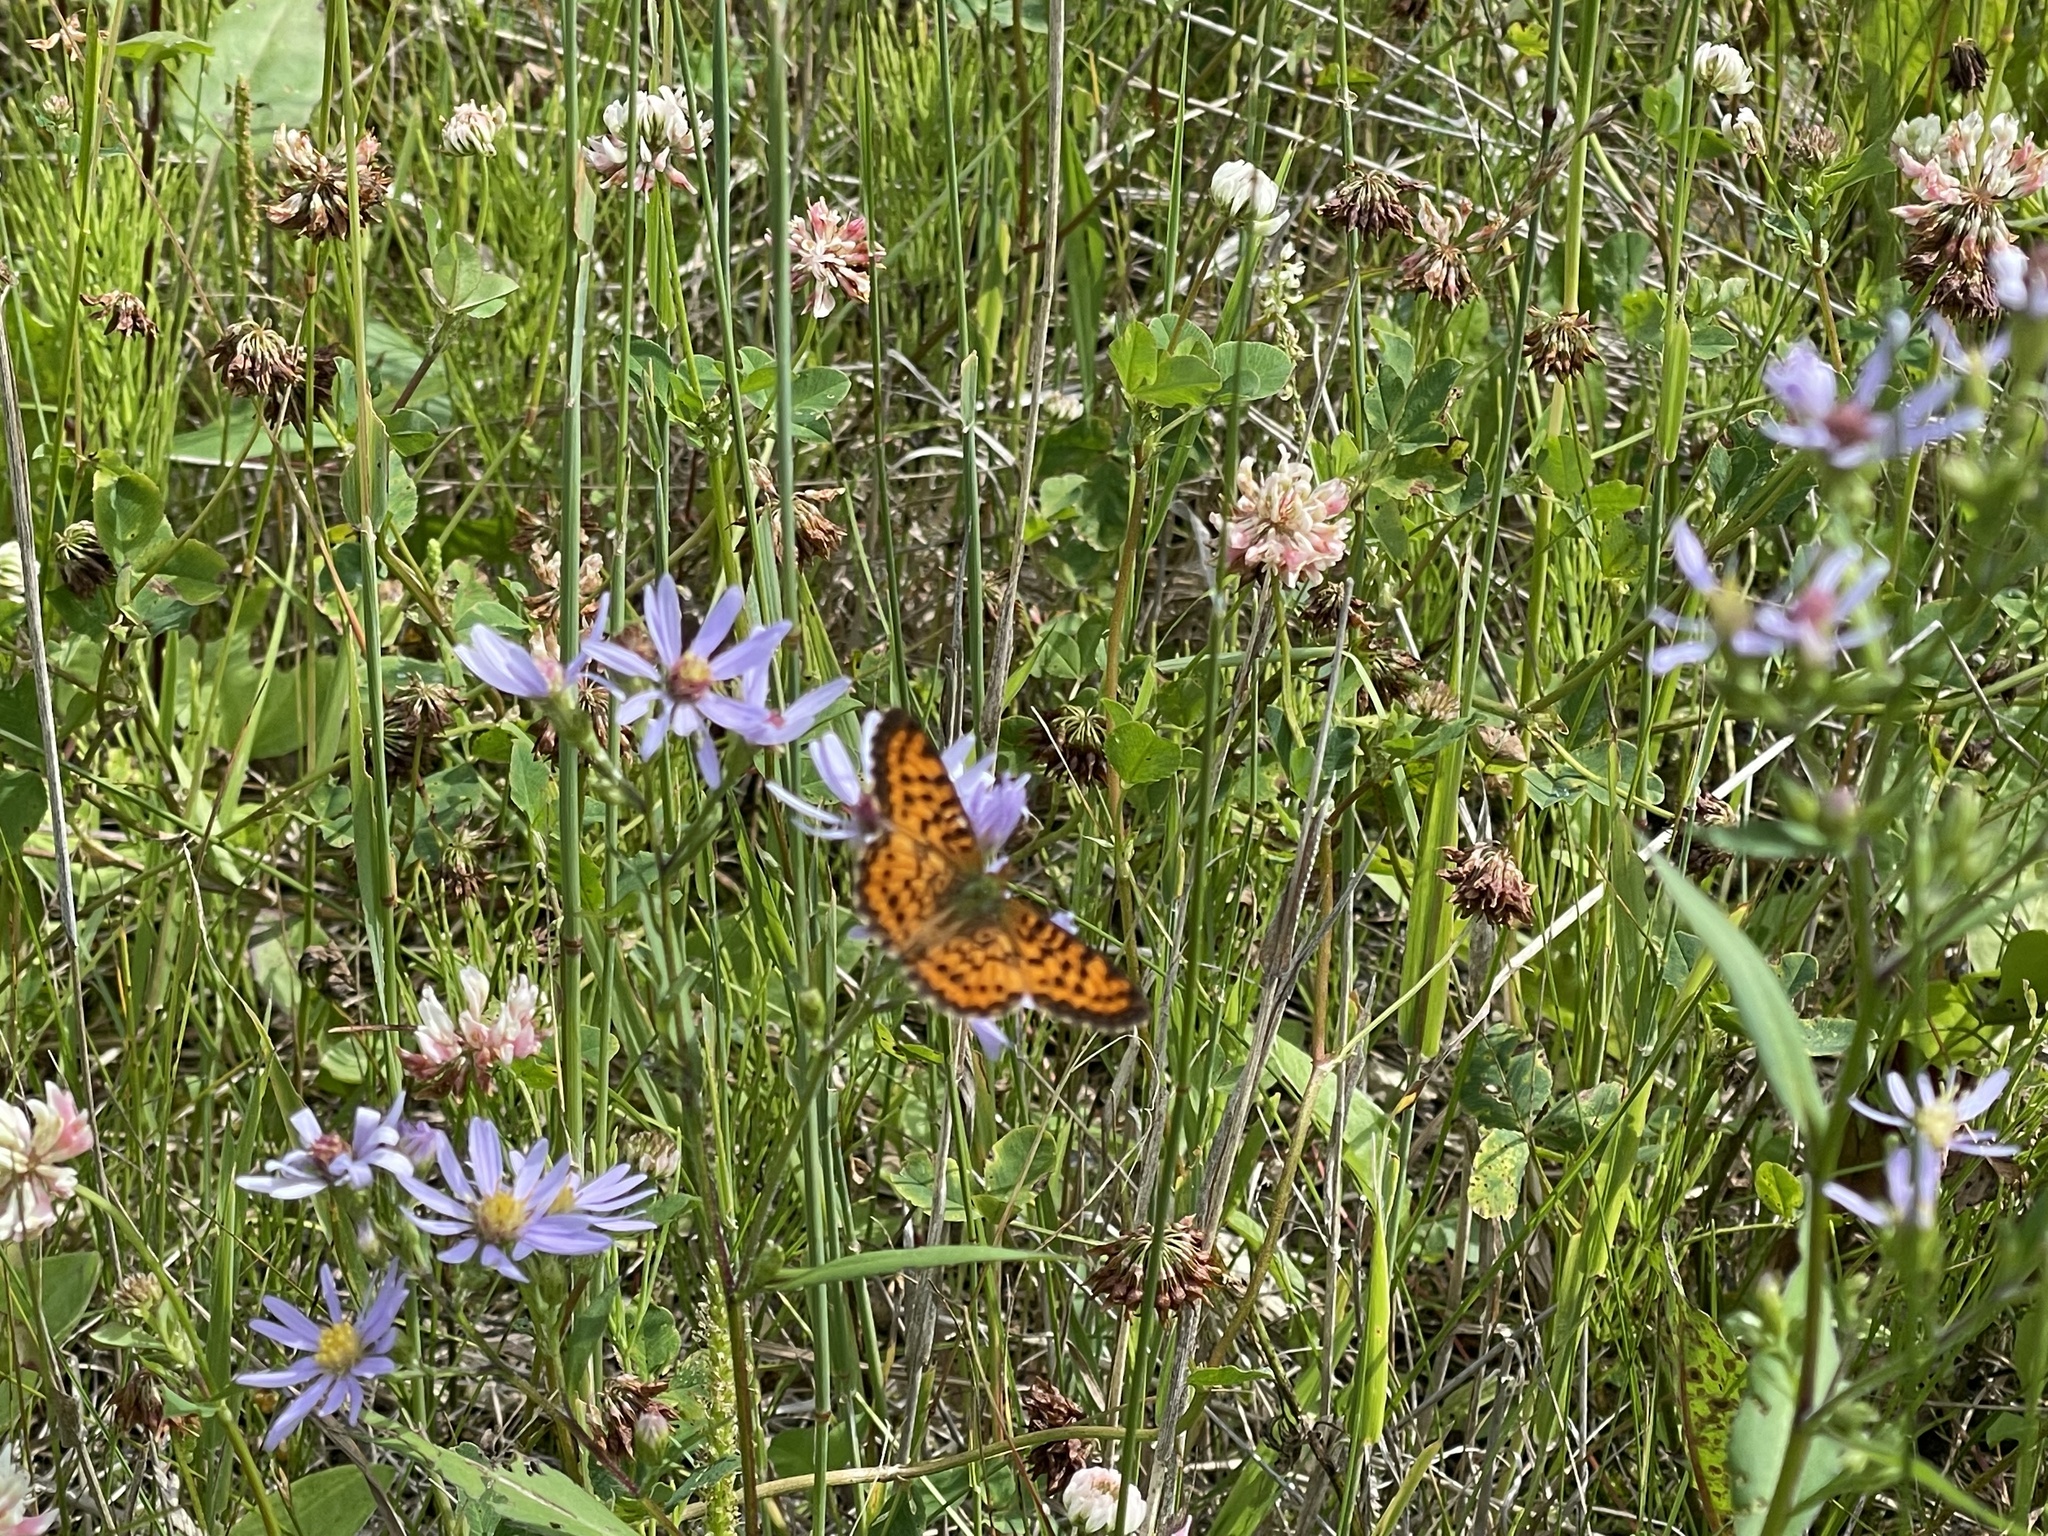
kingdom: Animalia
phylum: Arthropoda
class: Insecta
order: Lepidoptera
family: Nymphalidae
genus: Boloria
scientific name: Boloria chariclea
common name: Arctic fritillary
